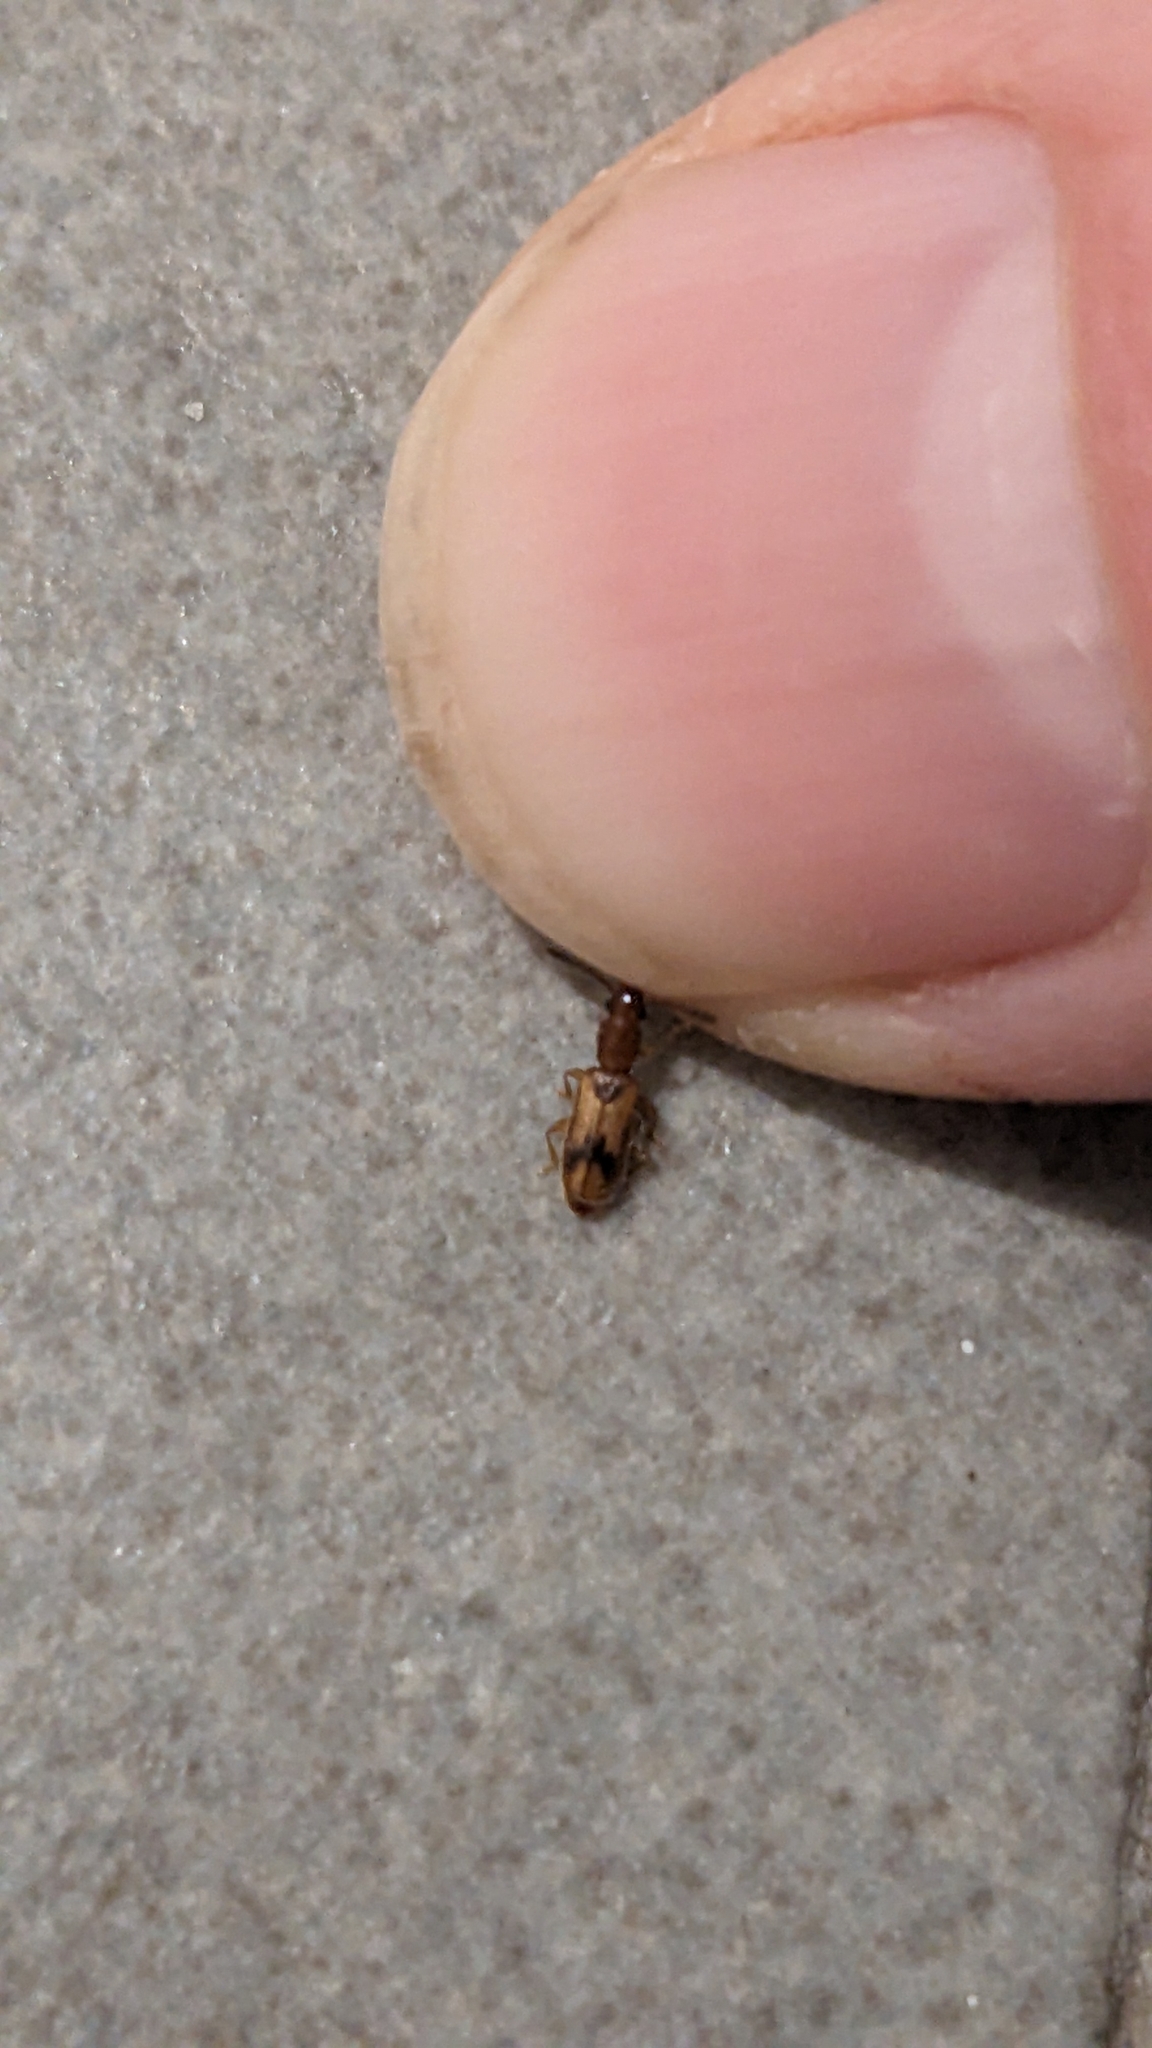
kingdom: Animalia
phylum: Arthropoda
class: Insecta
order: Coleoptera
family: Silvanidae
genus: Cryptamorpha
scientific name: Cryptamorpha desjardinsi
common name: Cryptamorpha
